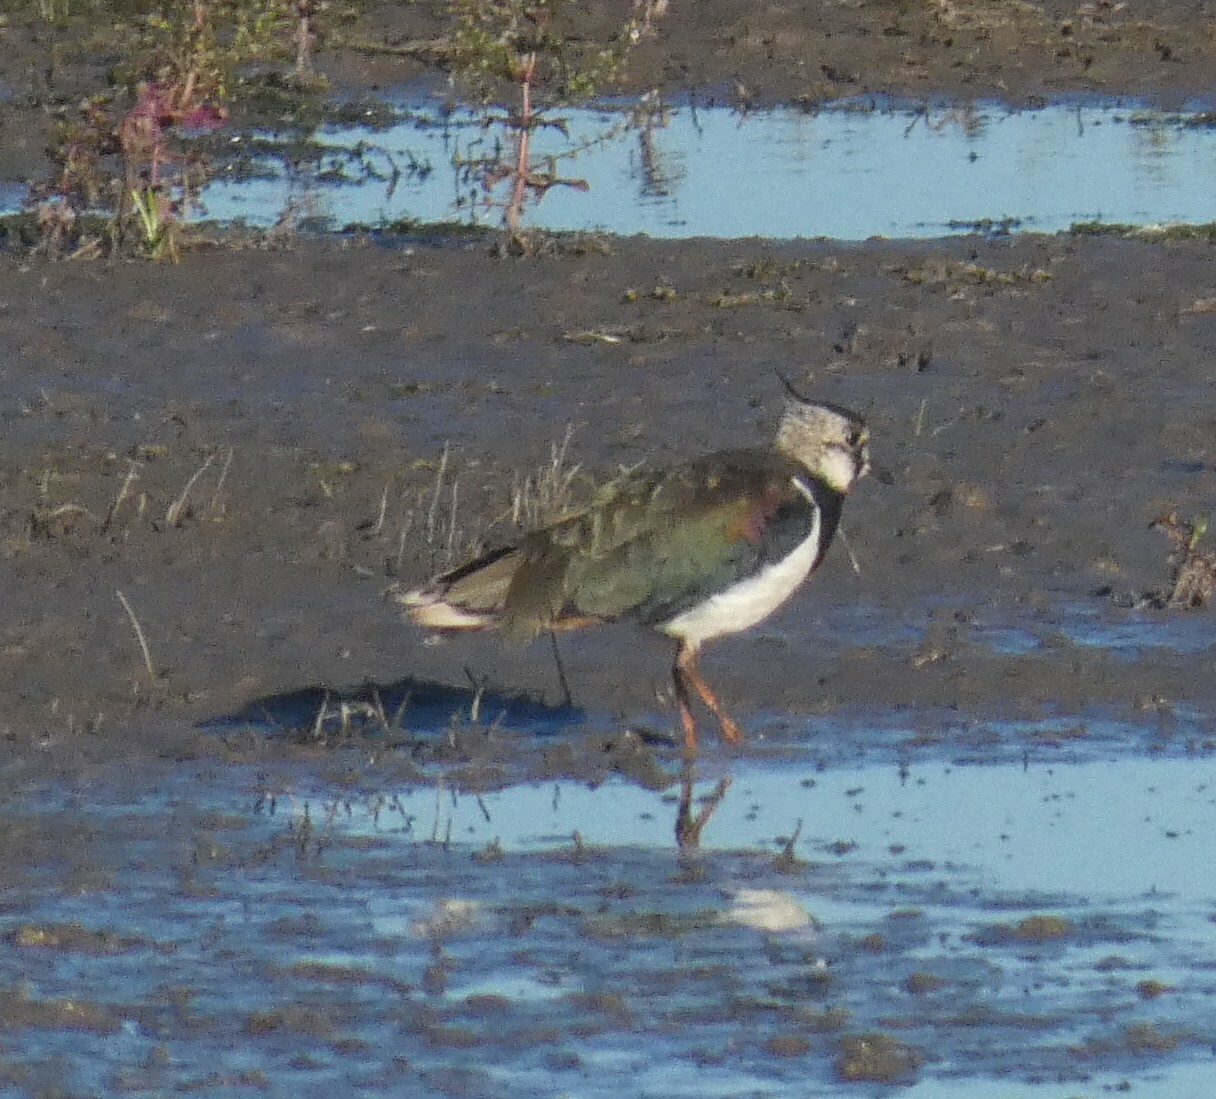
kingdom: Animalia
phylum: Chordata
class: Aves
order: Charadriiformes
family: Charadriidae
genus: Vanellus
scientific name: Vanellus vanellus
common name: Northern lapwing
